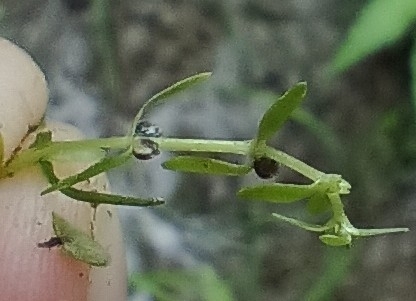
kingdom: Plantae
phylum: Tracheophyta
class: Magnoliopsida
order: Lamiales
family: Plantaginaceae
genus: Callitriche
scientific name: Callitriche palustris
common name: Spring water-starwort
